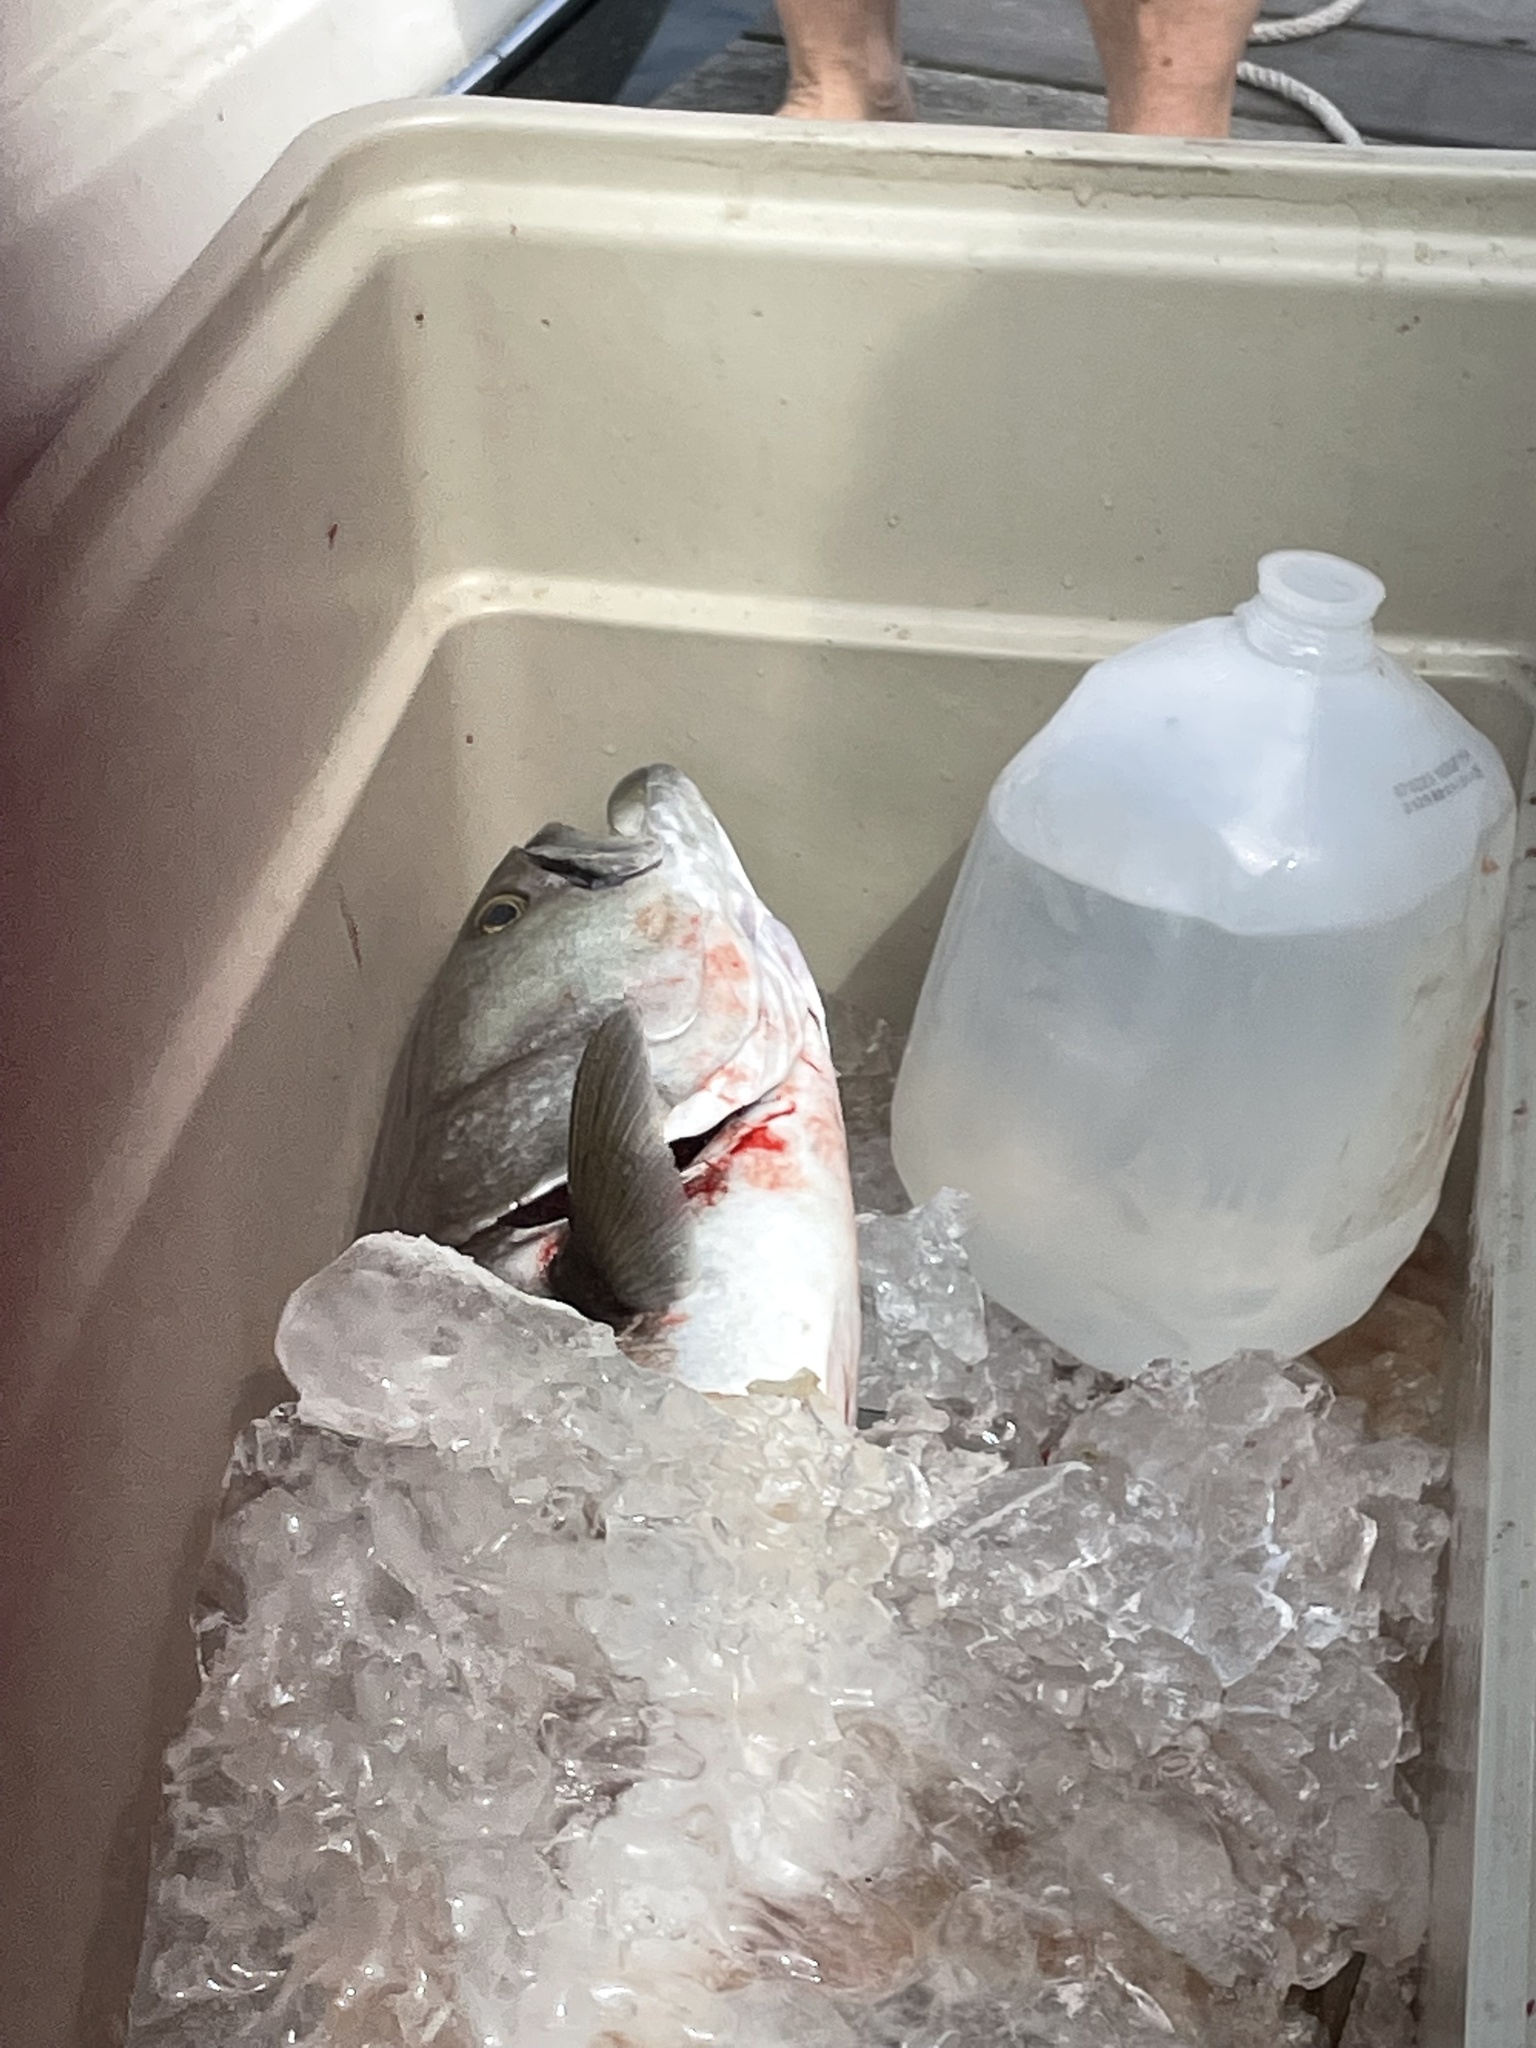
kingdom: Animalia
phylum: Chordata
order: Perciformes
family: Pomatomidae
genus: Pomatomus
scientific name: Pomatomus saltatrix
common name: Bluefish
